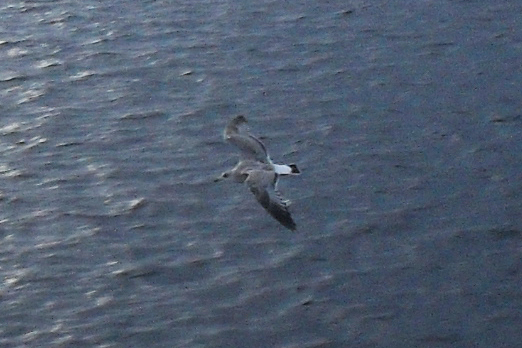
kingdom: Animalia
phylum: Chordata
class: Aves
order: Charadriiformes
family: Laridae
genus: Larus
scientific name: Larus canus
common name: Mew gull
